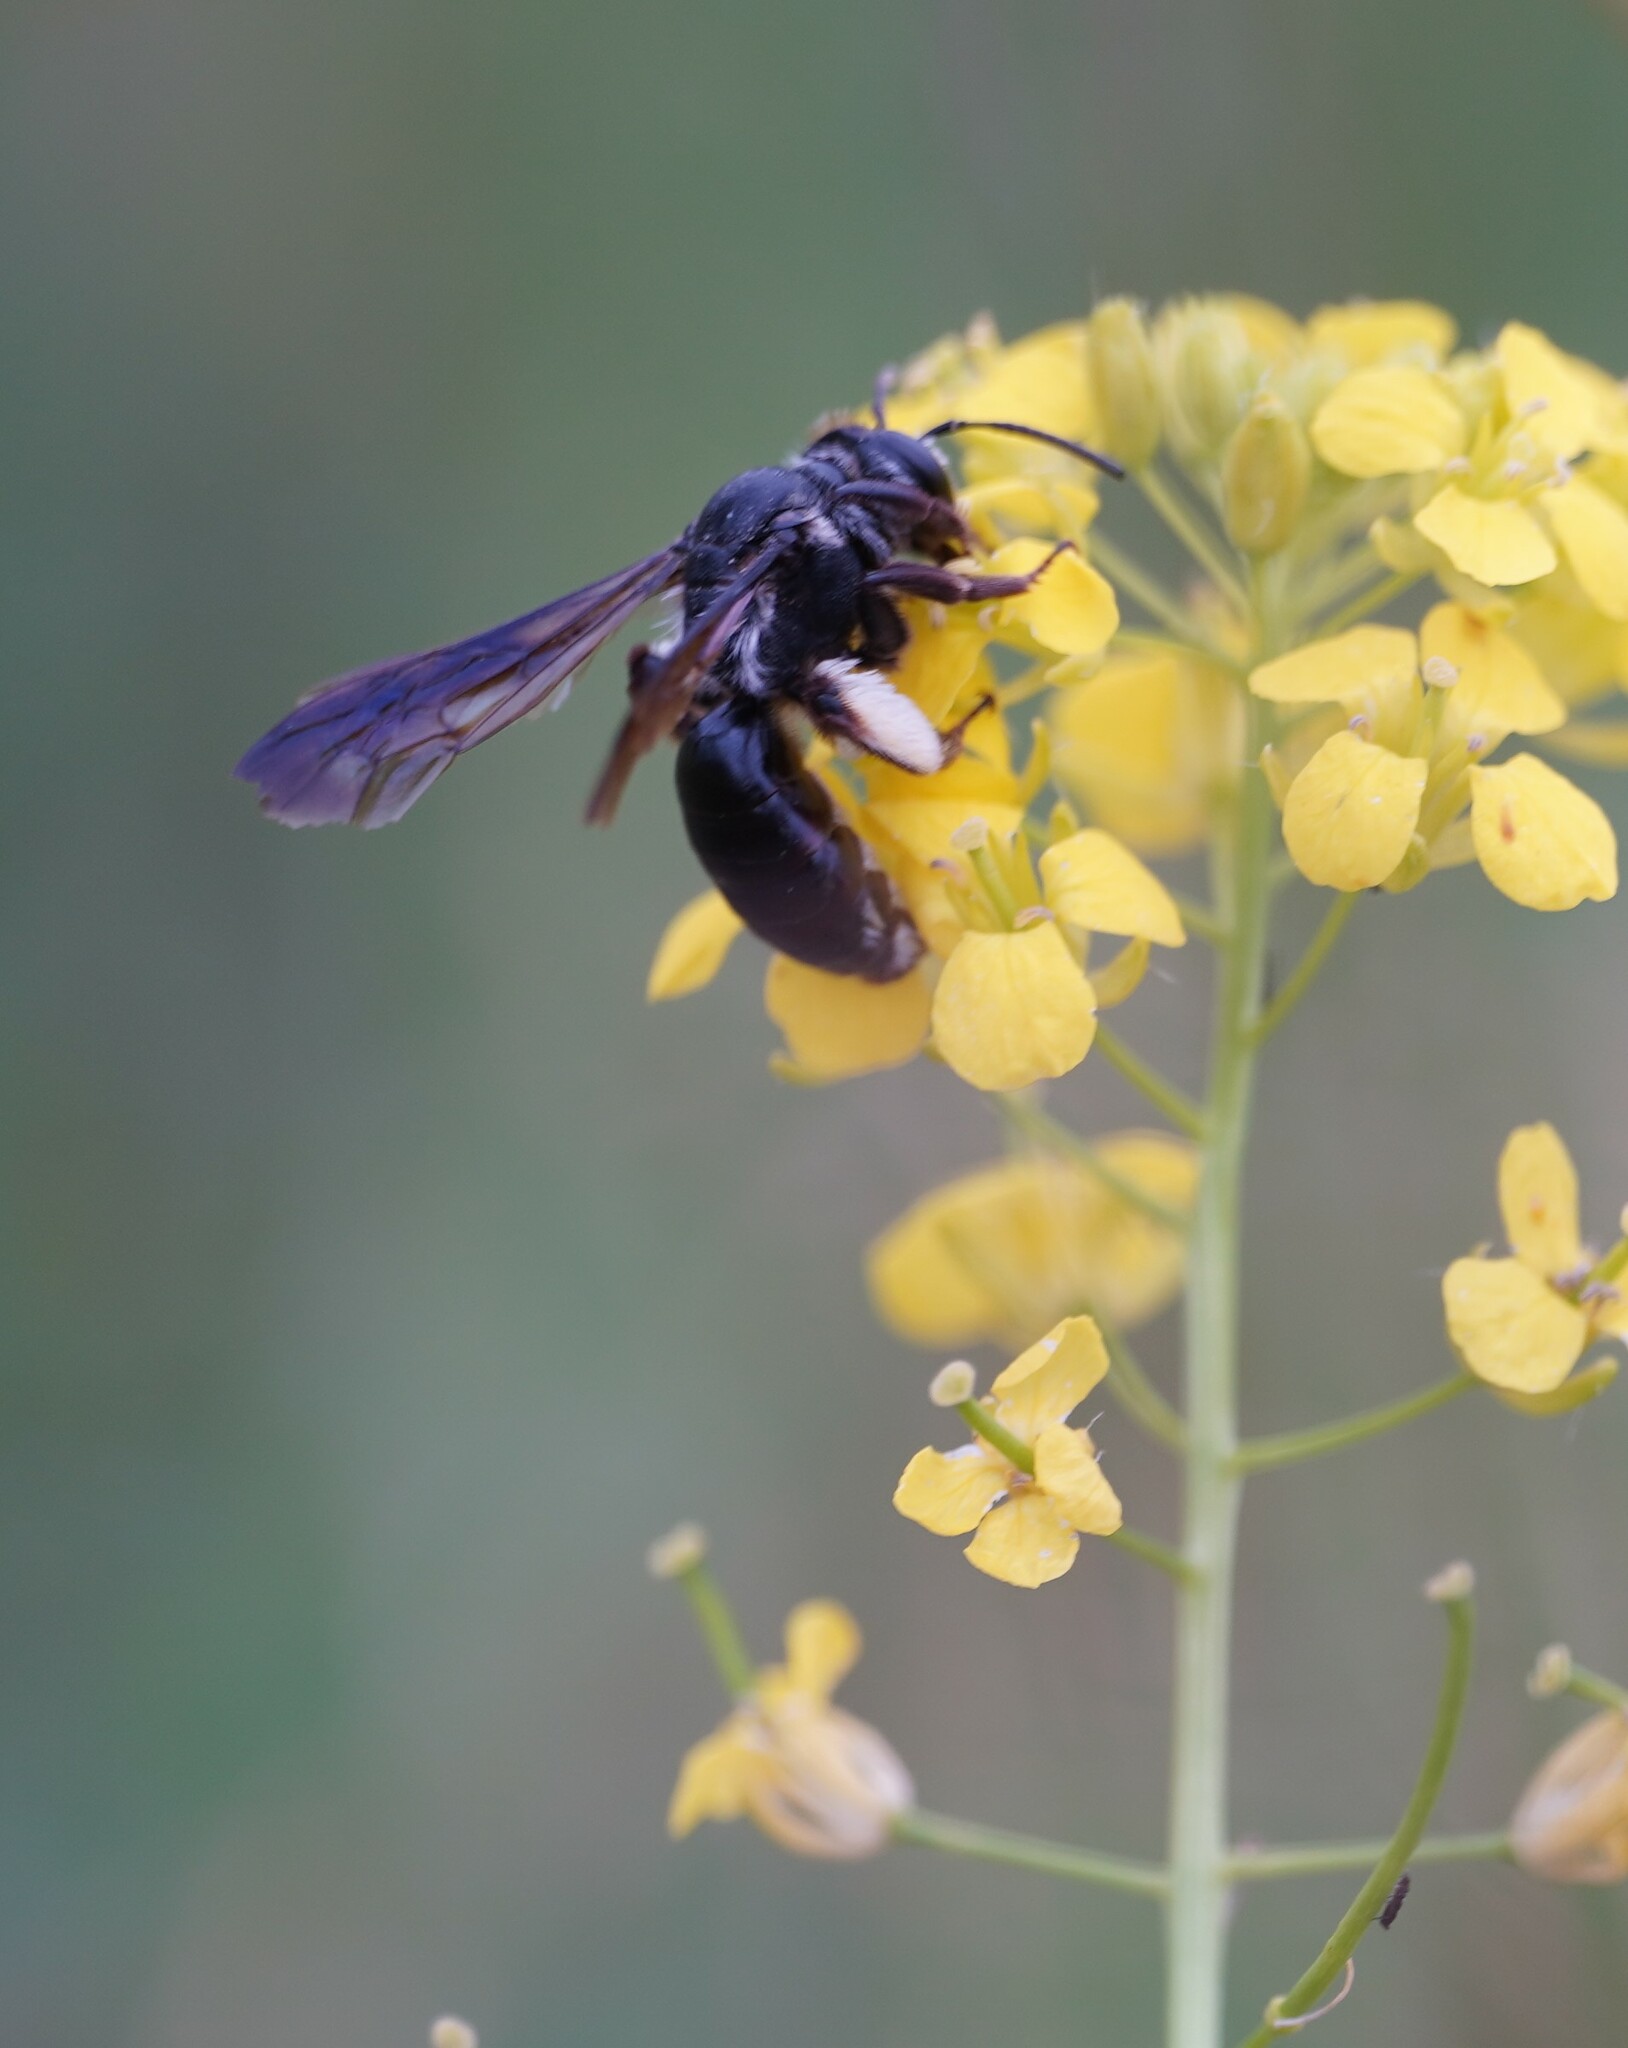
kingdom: Animalia
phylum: Arthropoda
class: Insecta
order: Hymenoptera
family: Andrenidae
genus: Andrena
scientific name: Andrena agilissima
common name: Violet-winged mining bee
